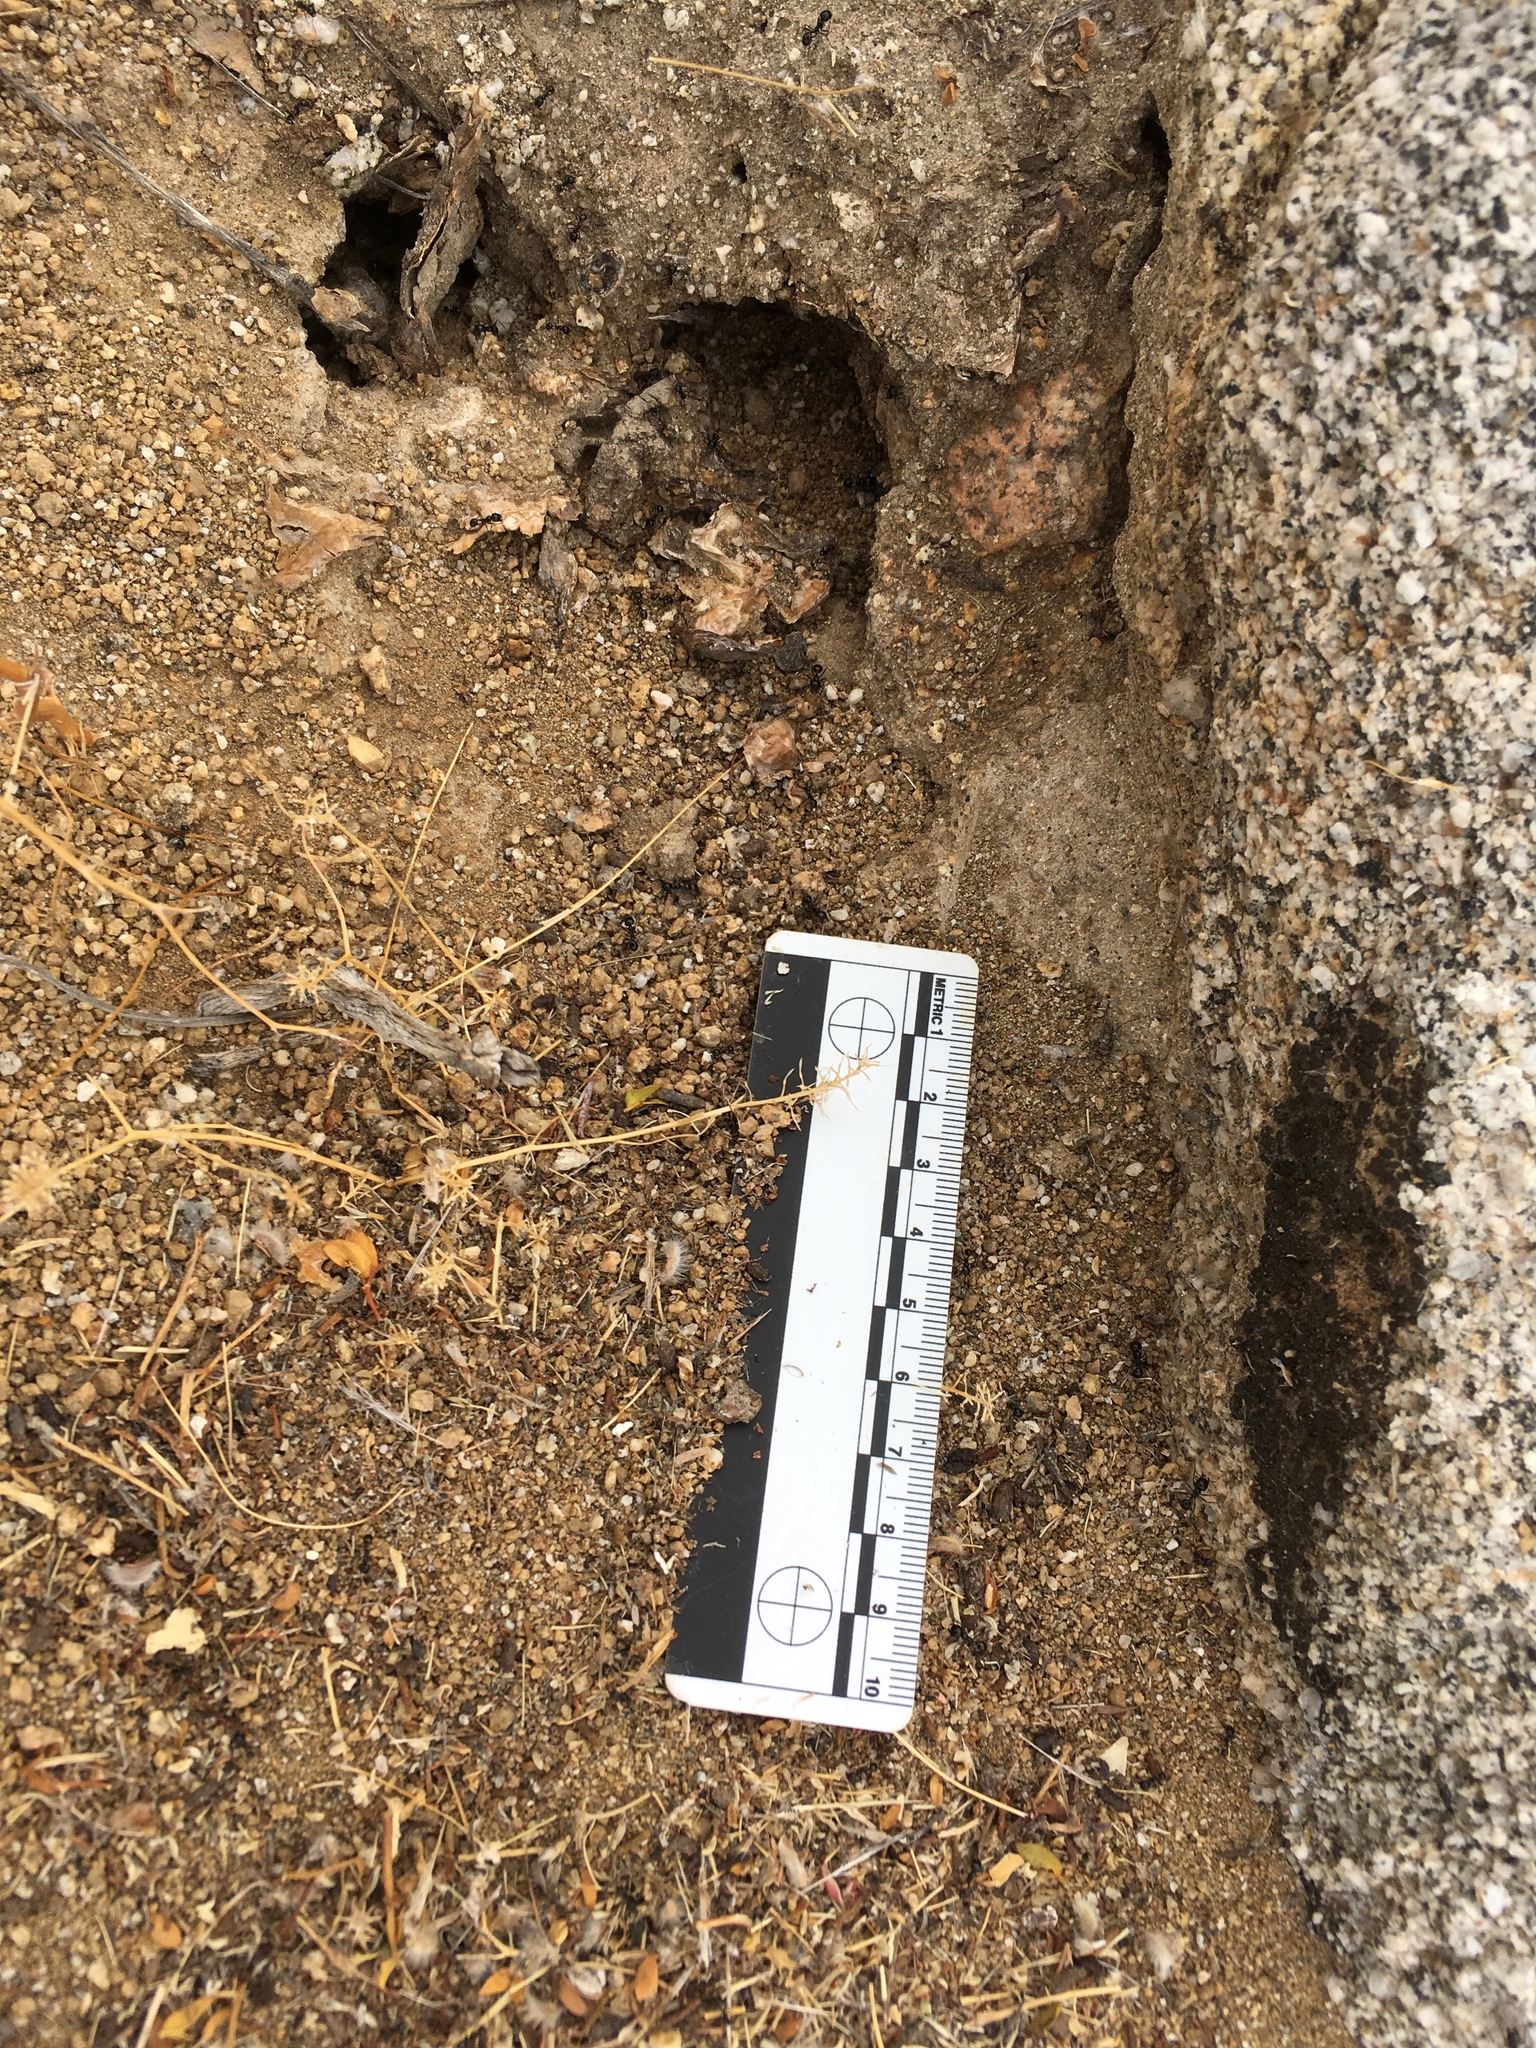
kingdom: Animalia
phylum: Arthropoda
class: Insecta
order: Hymenoptera
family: Formicidae
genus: Messor
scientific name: Messor pergandei
